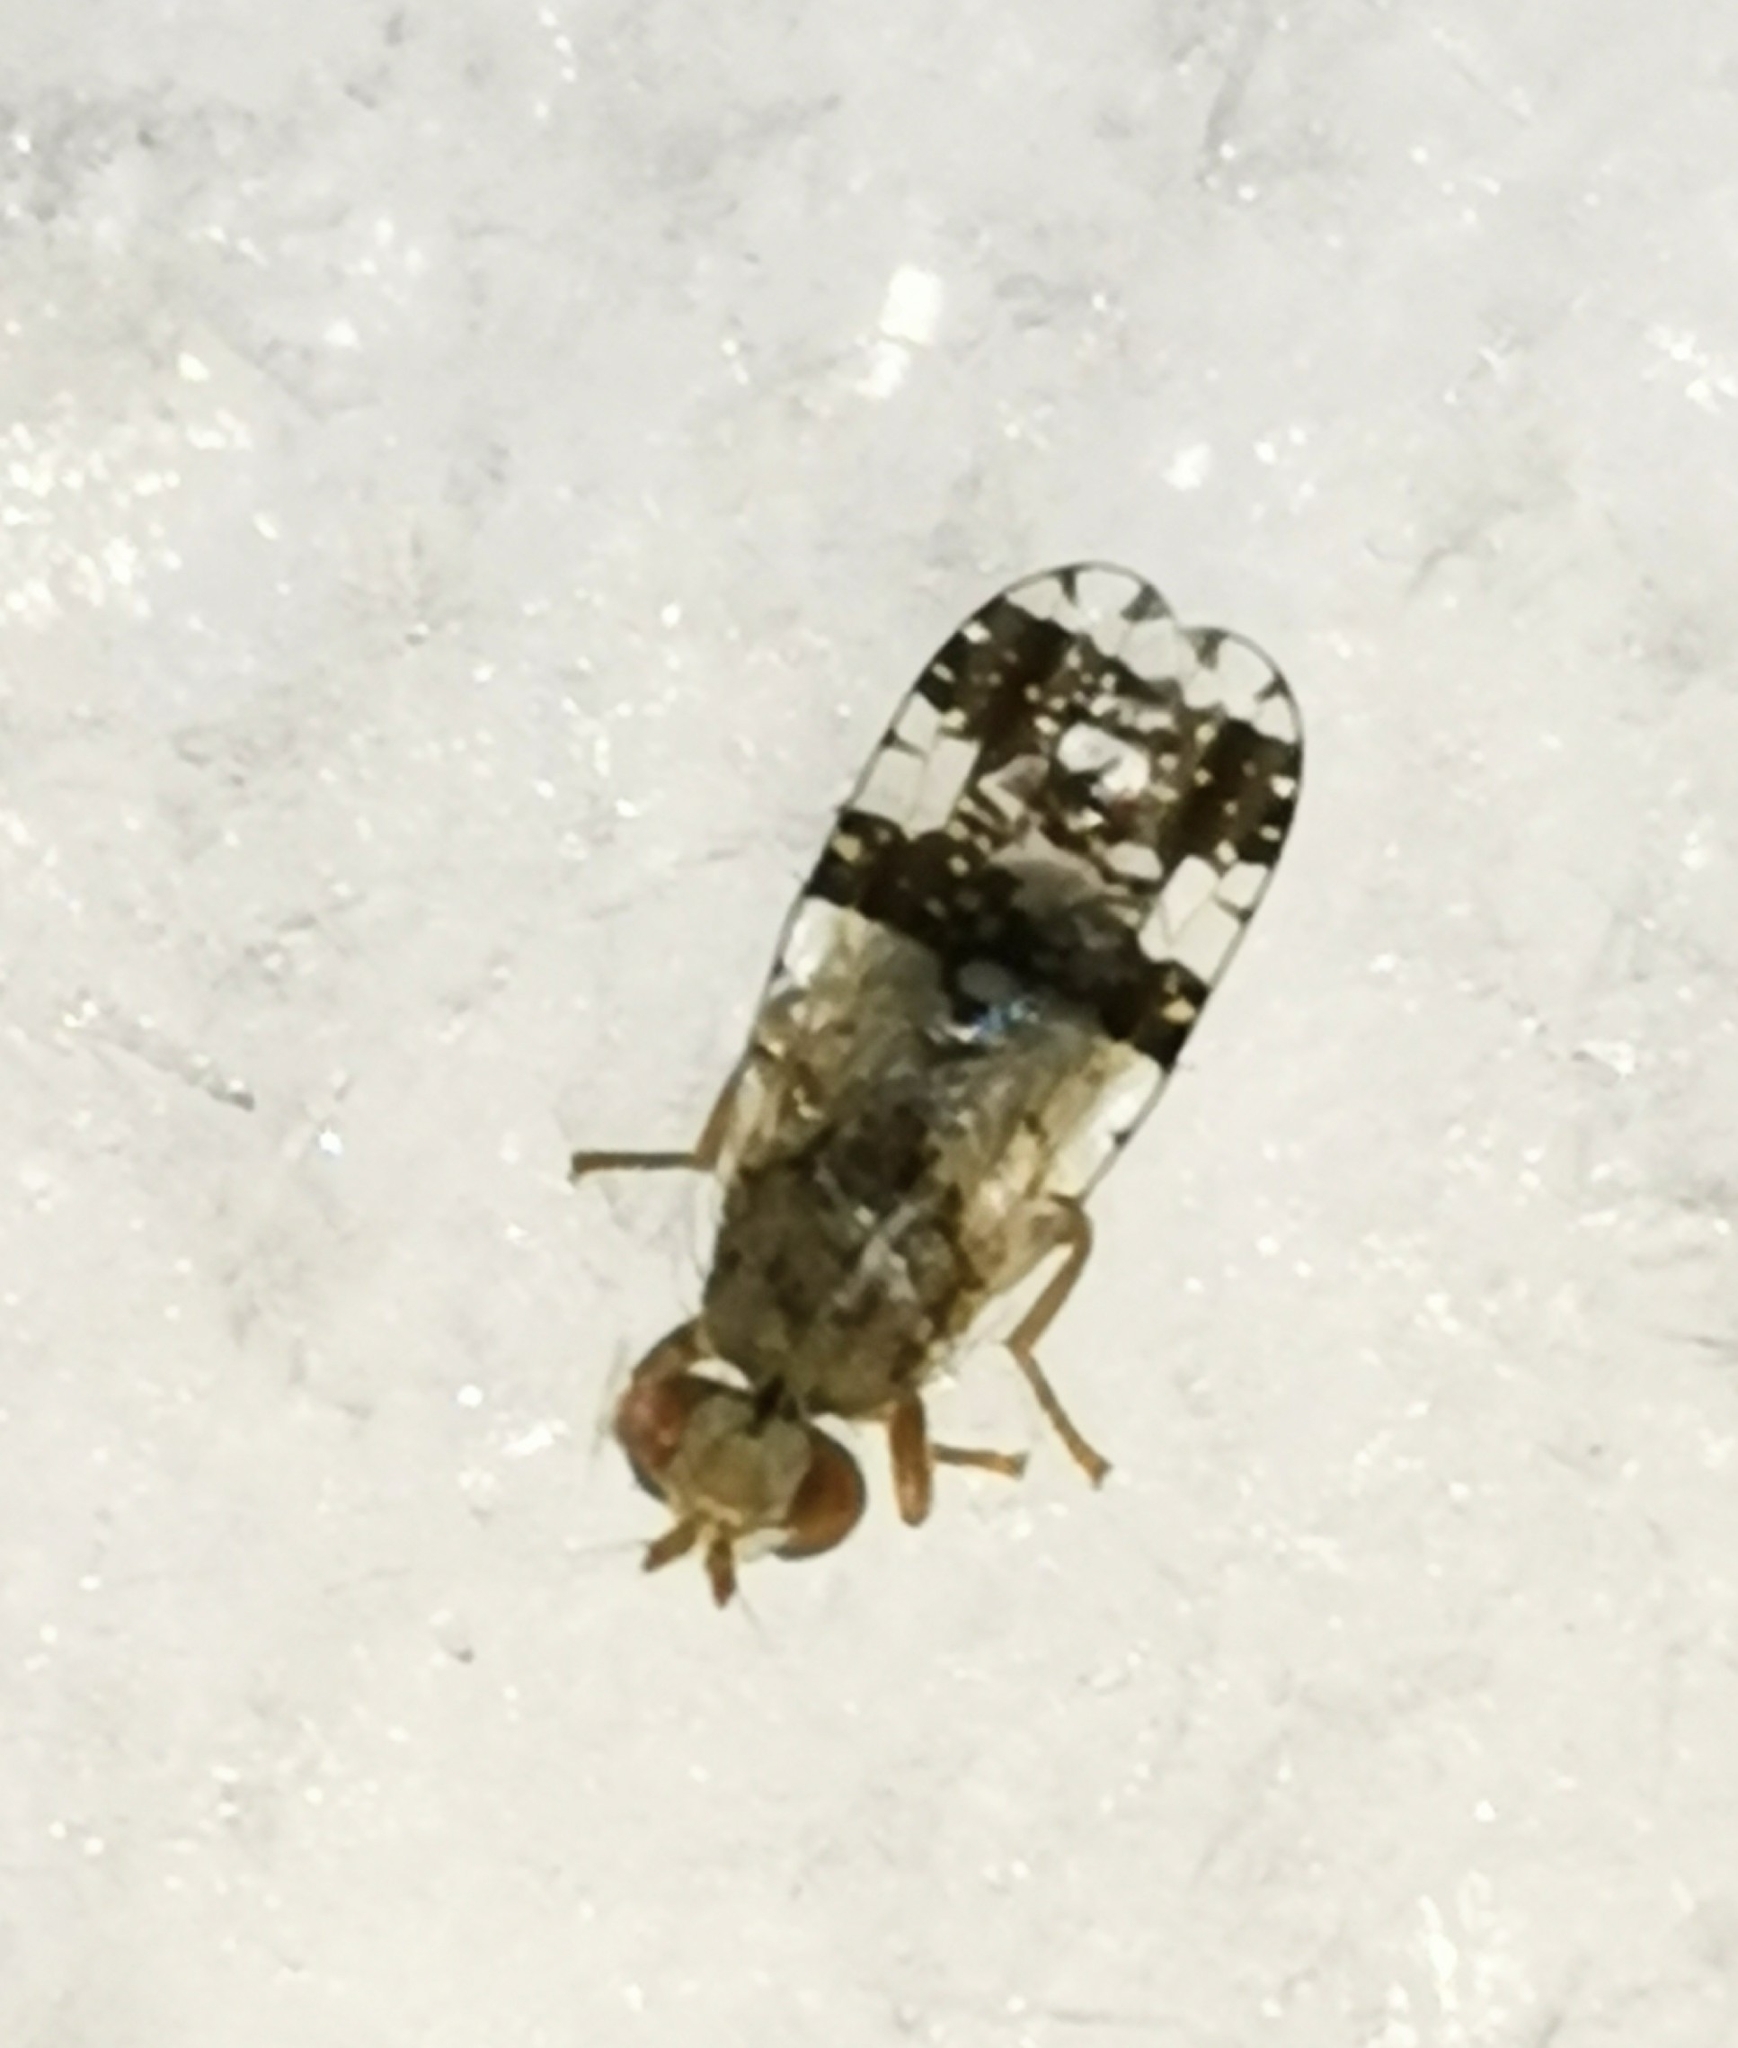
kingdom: Animalia
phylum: Arthropoda
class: Insecta
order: Diptera
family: Tephritidae
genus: Tephritis
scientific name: Tephritis dilacerata
